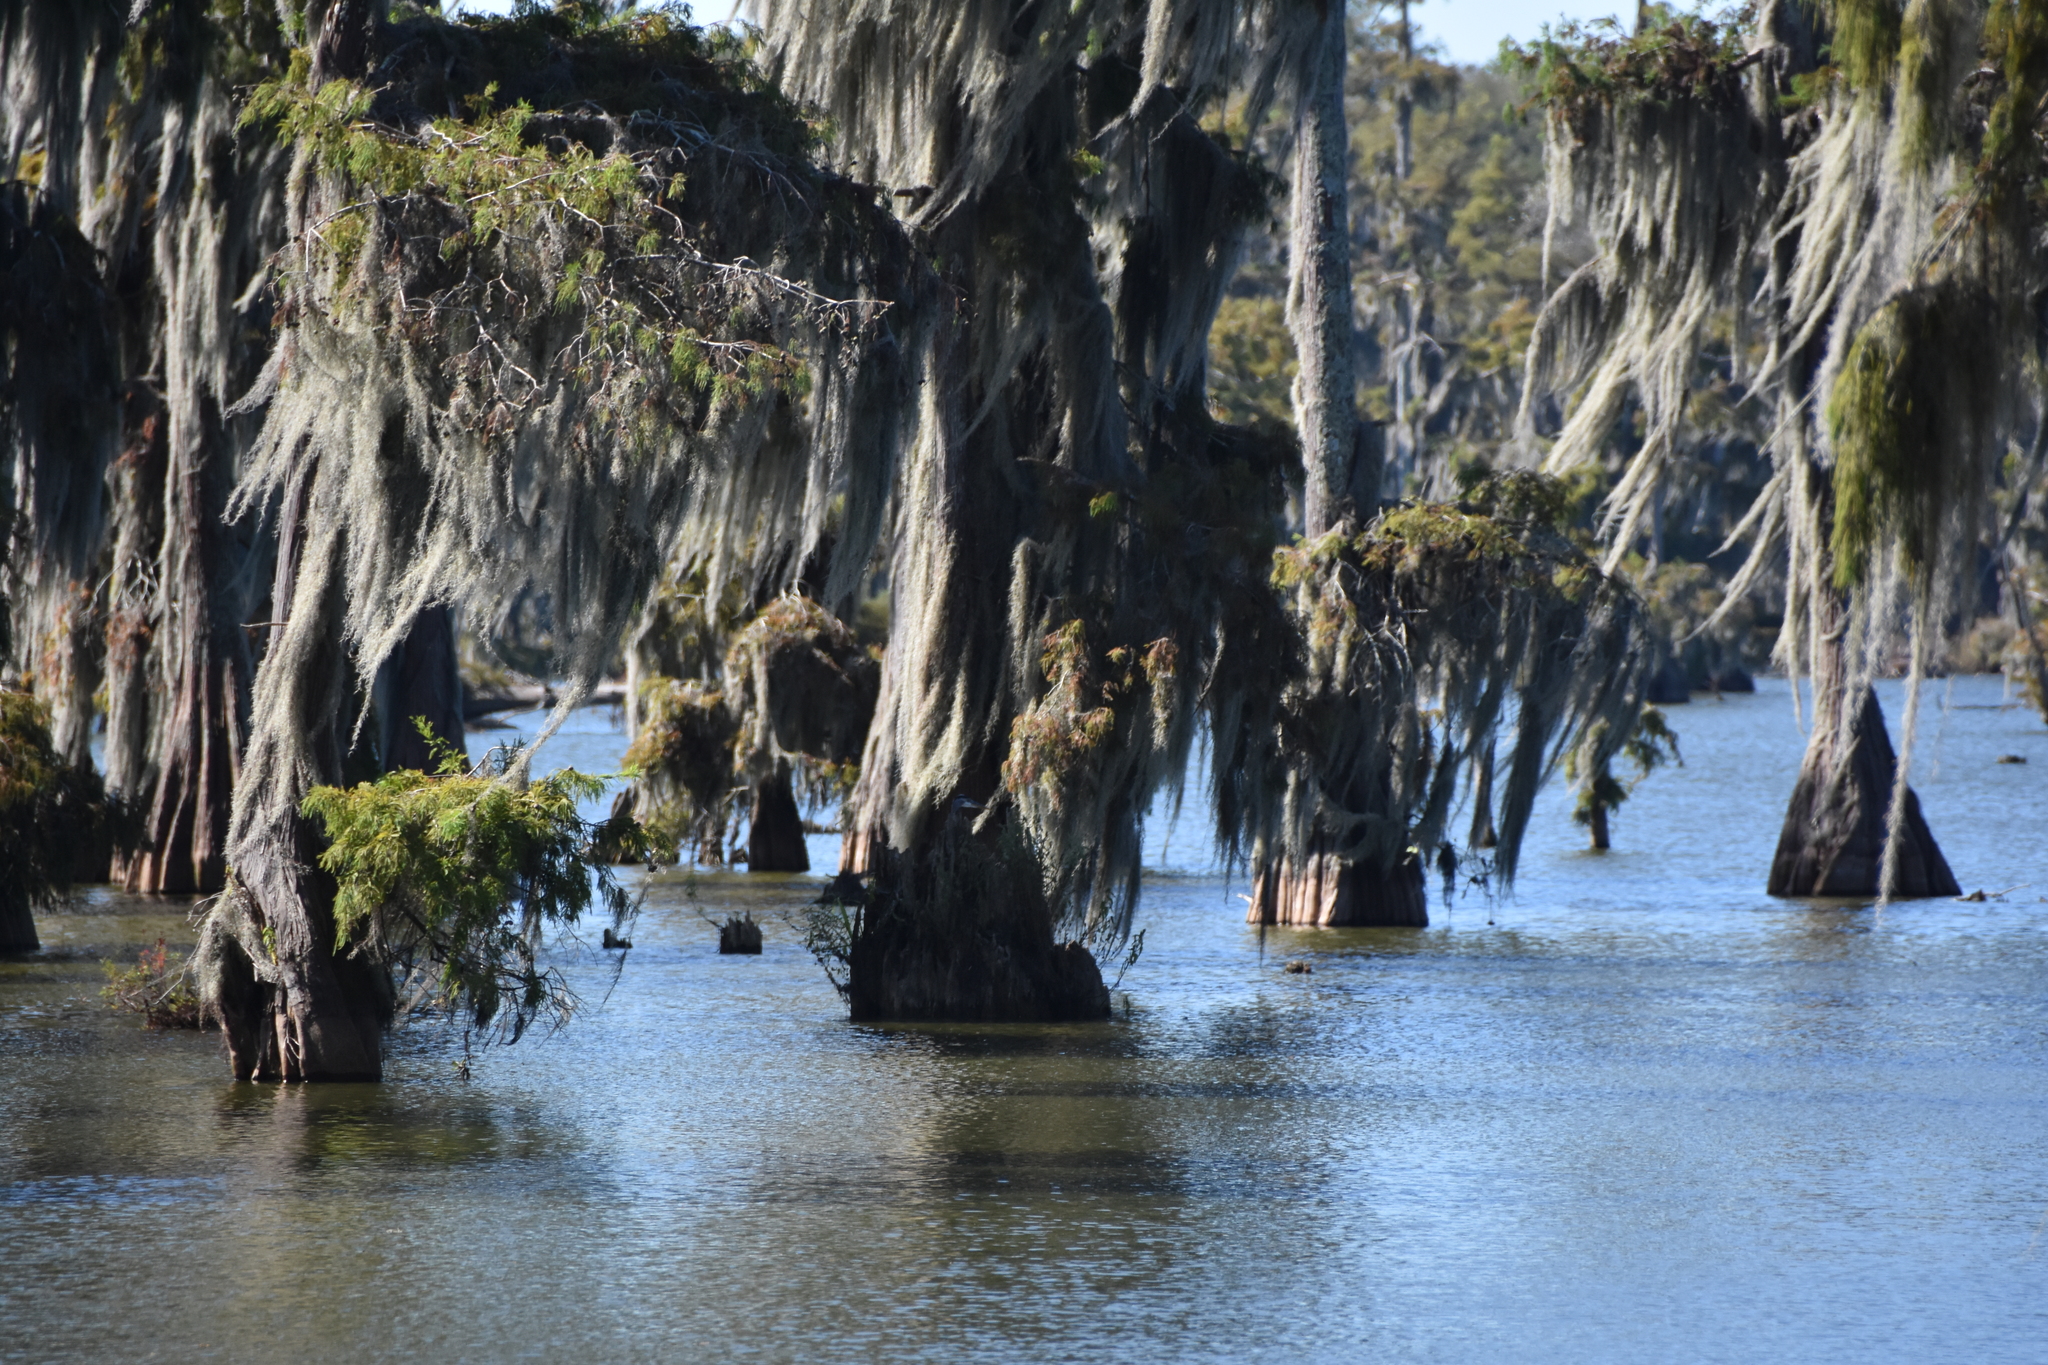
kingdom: Animalia
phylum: Chordata
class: Aves
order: Pelecaniformes
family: Ardeidae
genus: Ardea
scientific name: Ardea herodias
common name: Great blue heron
